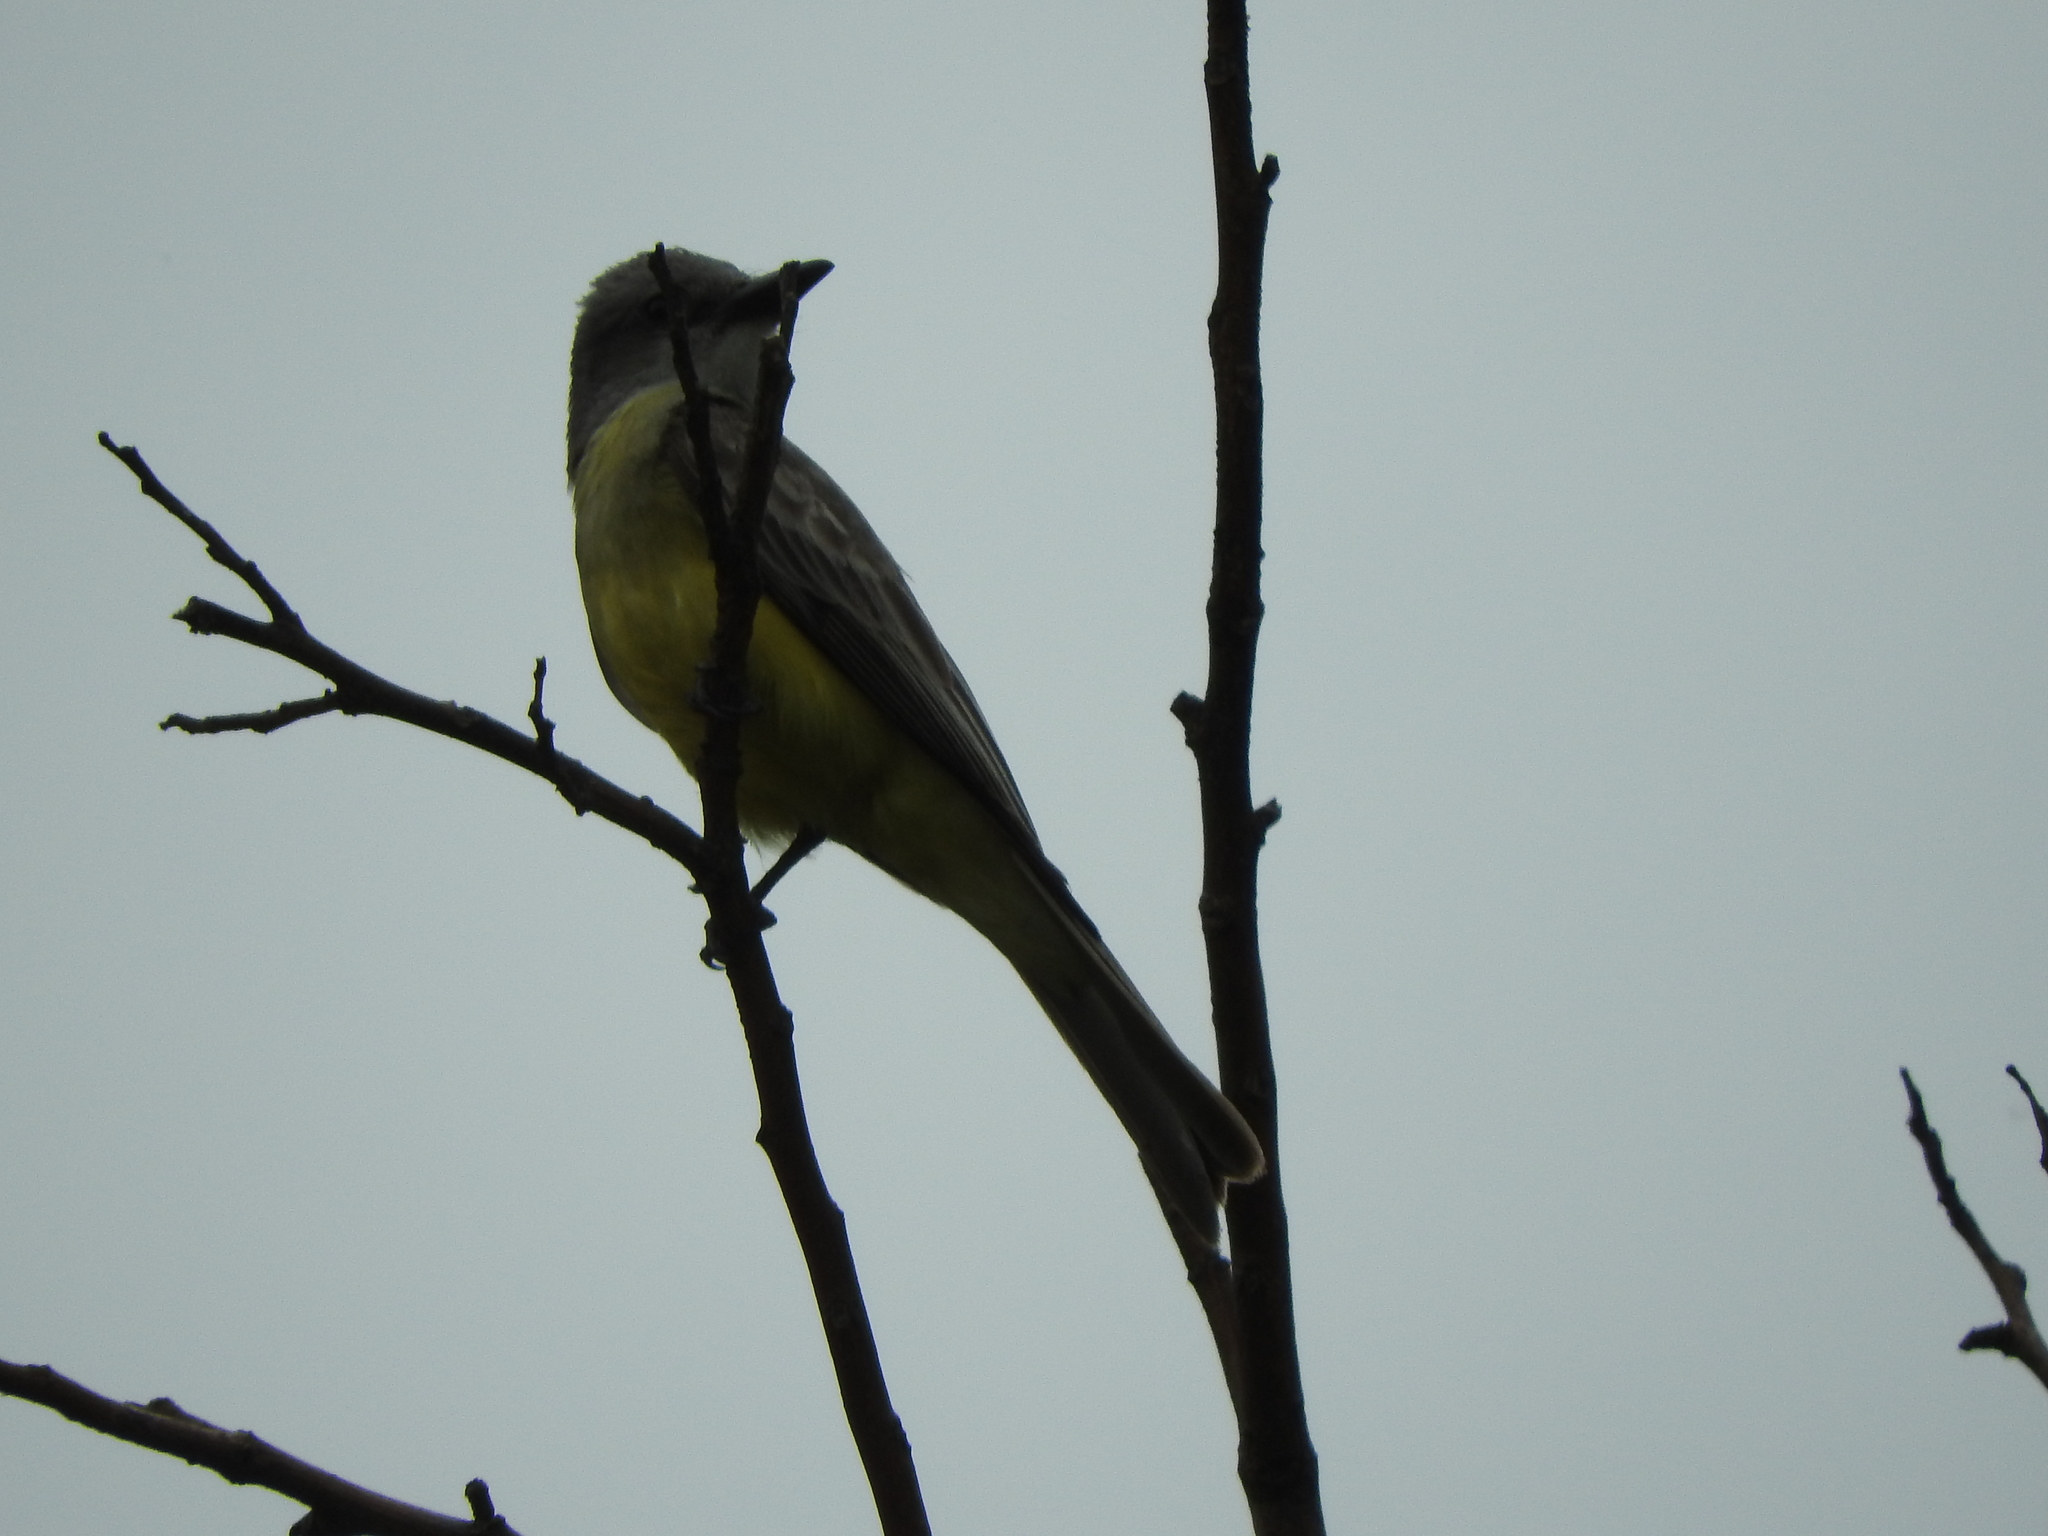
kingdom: Animalia
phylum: Chordata
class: Aves
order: Passeriformes
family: Tyrannidae
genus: Tyrannus
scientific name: Tyrannus melancholicus
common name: Tropical kingbird
